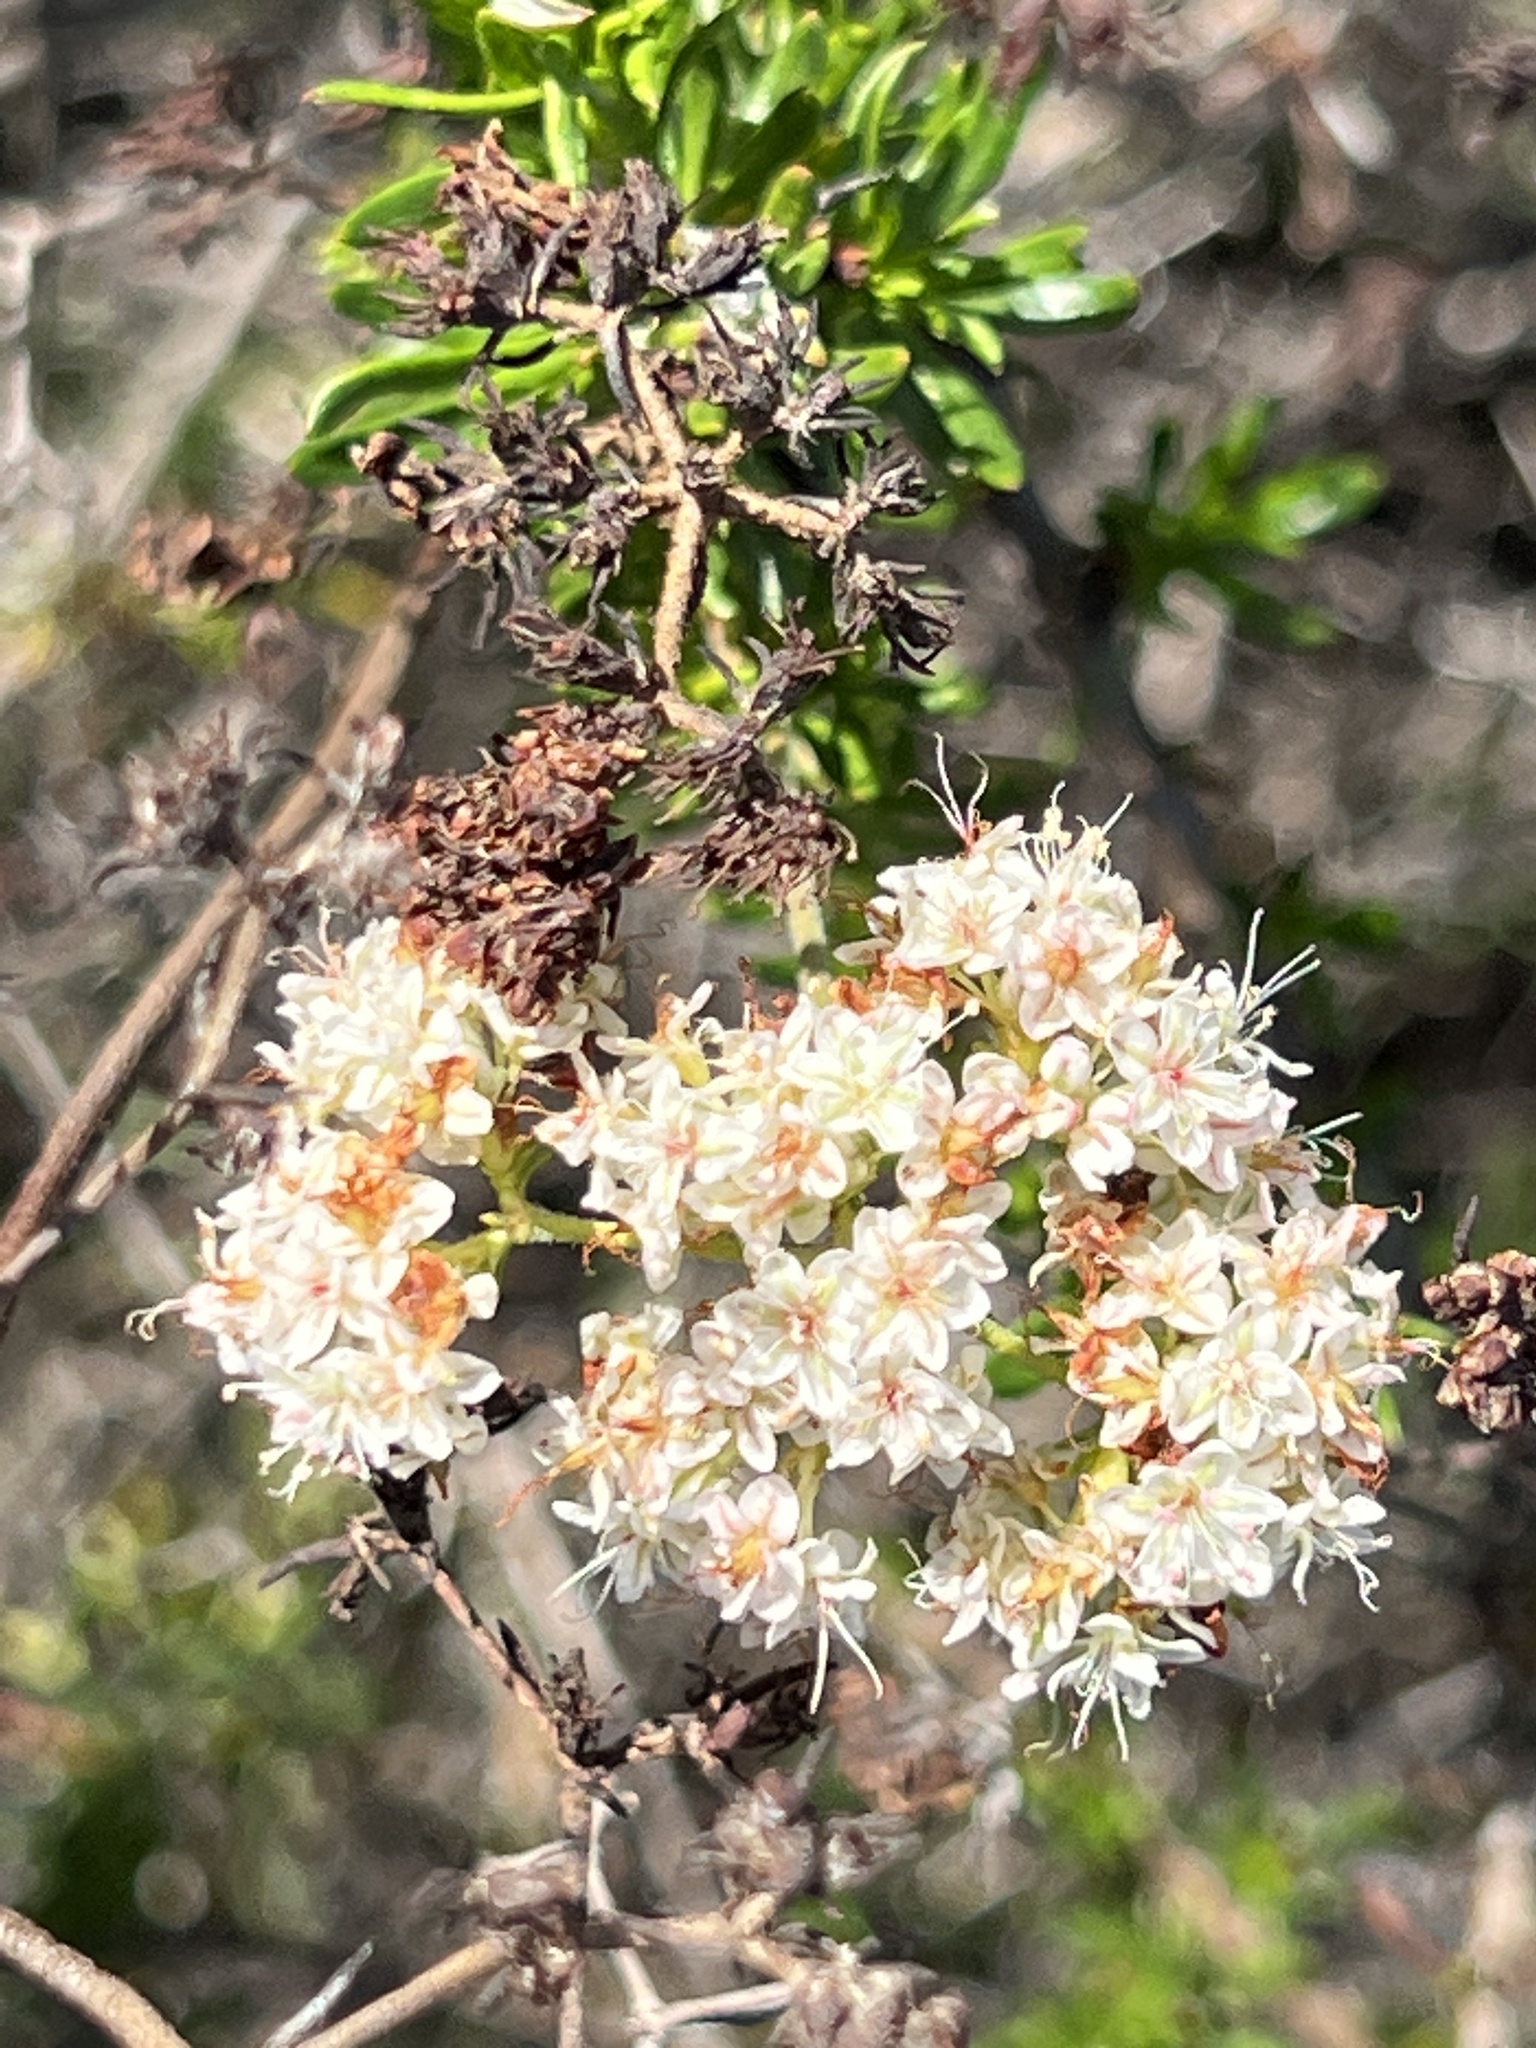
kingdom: Plantae
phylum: Tracheophyta
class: Magnoliopsida
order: Caryophyllales
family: Polygonaceae
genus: Eriogonum
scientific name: Eriogonum fasciculatum
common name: California wild buckwheat
